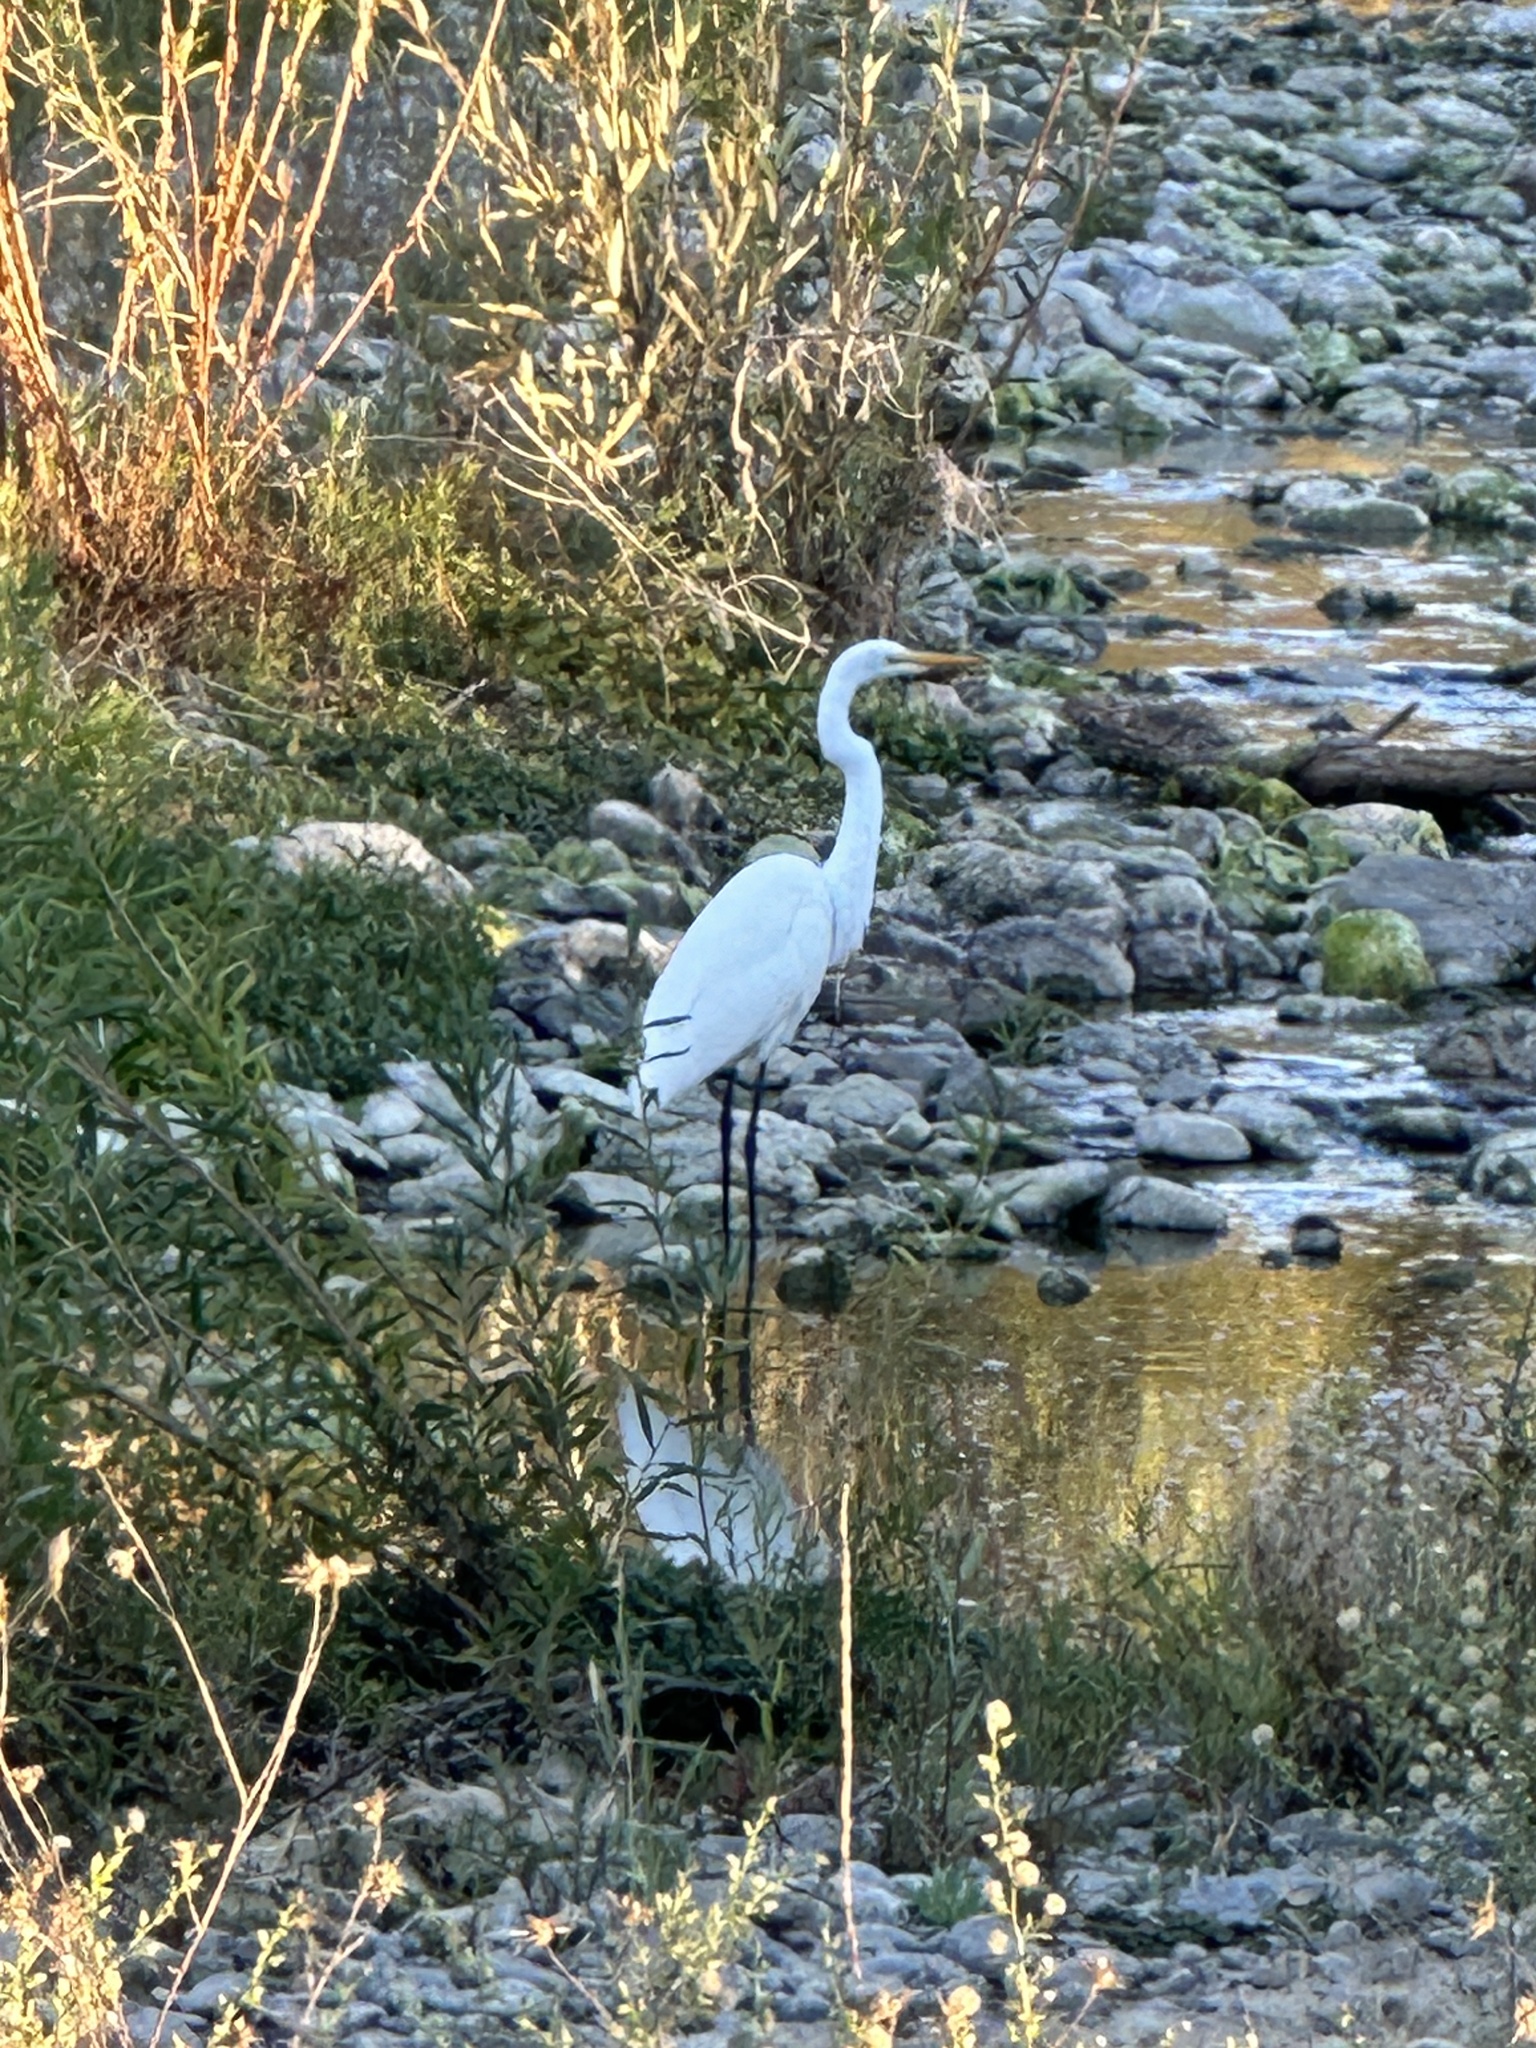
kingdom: Animalia
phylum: Chordata
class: Aves
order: Pelecaniformes
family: Ardeidae
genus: Ardea
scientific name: Ardea alba
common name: Great egret
